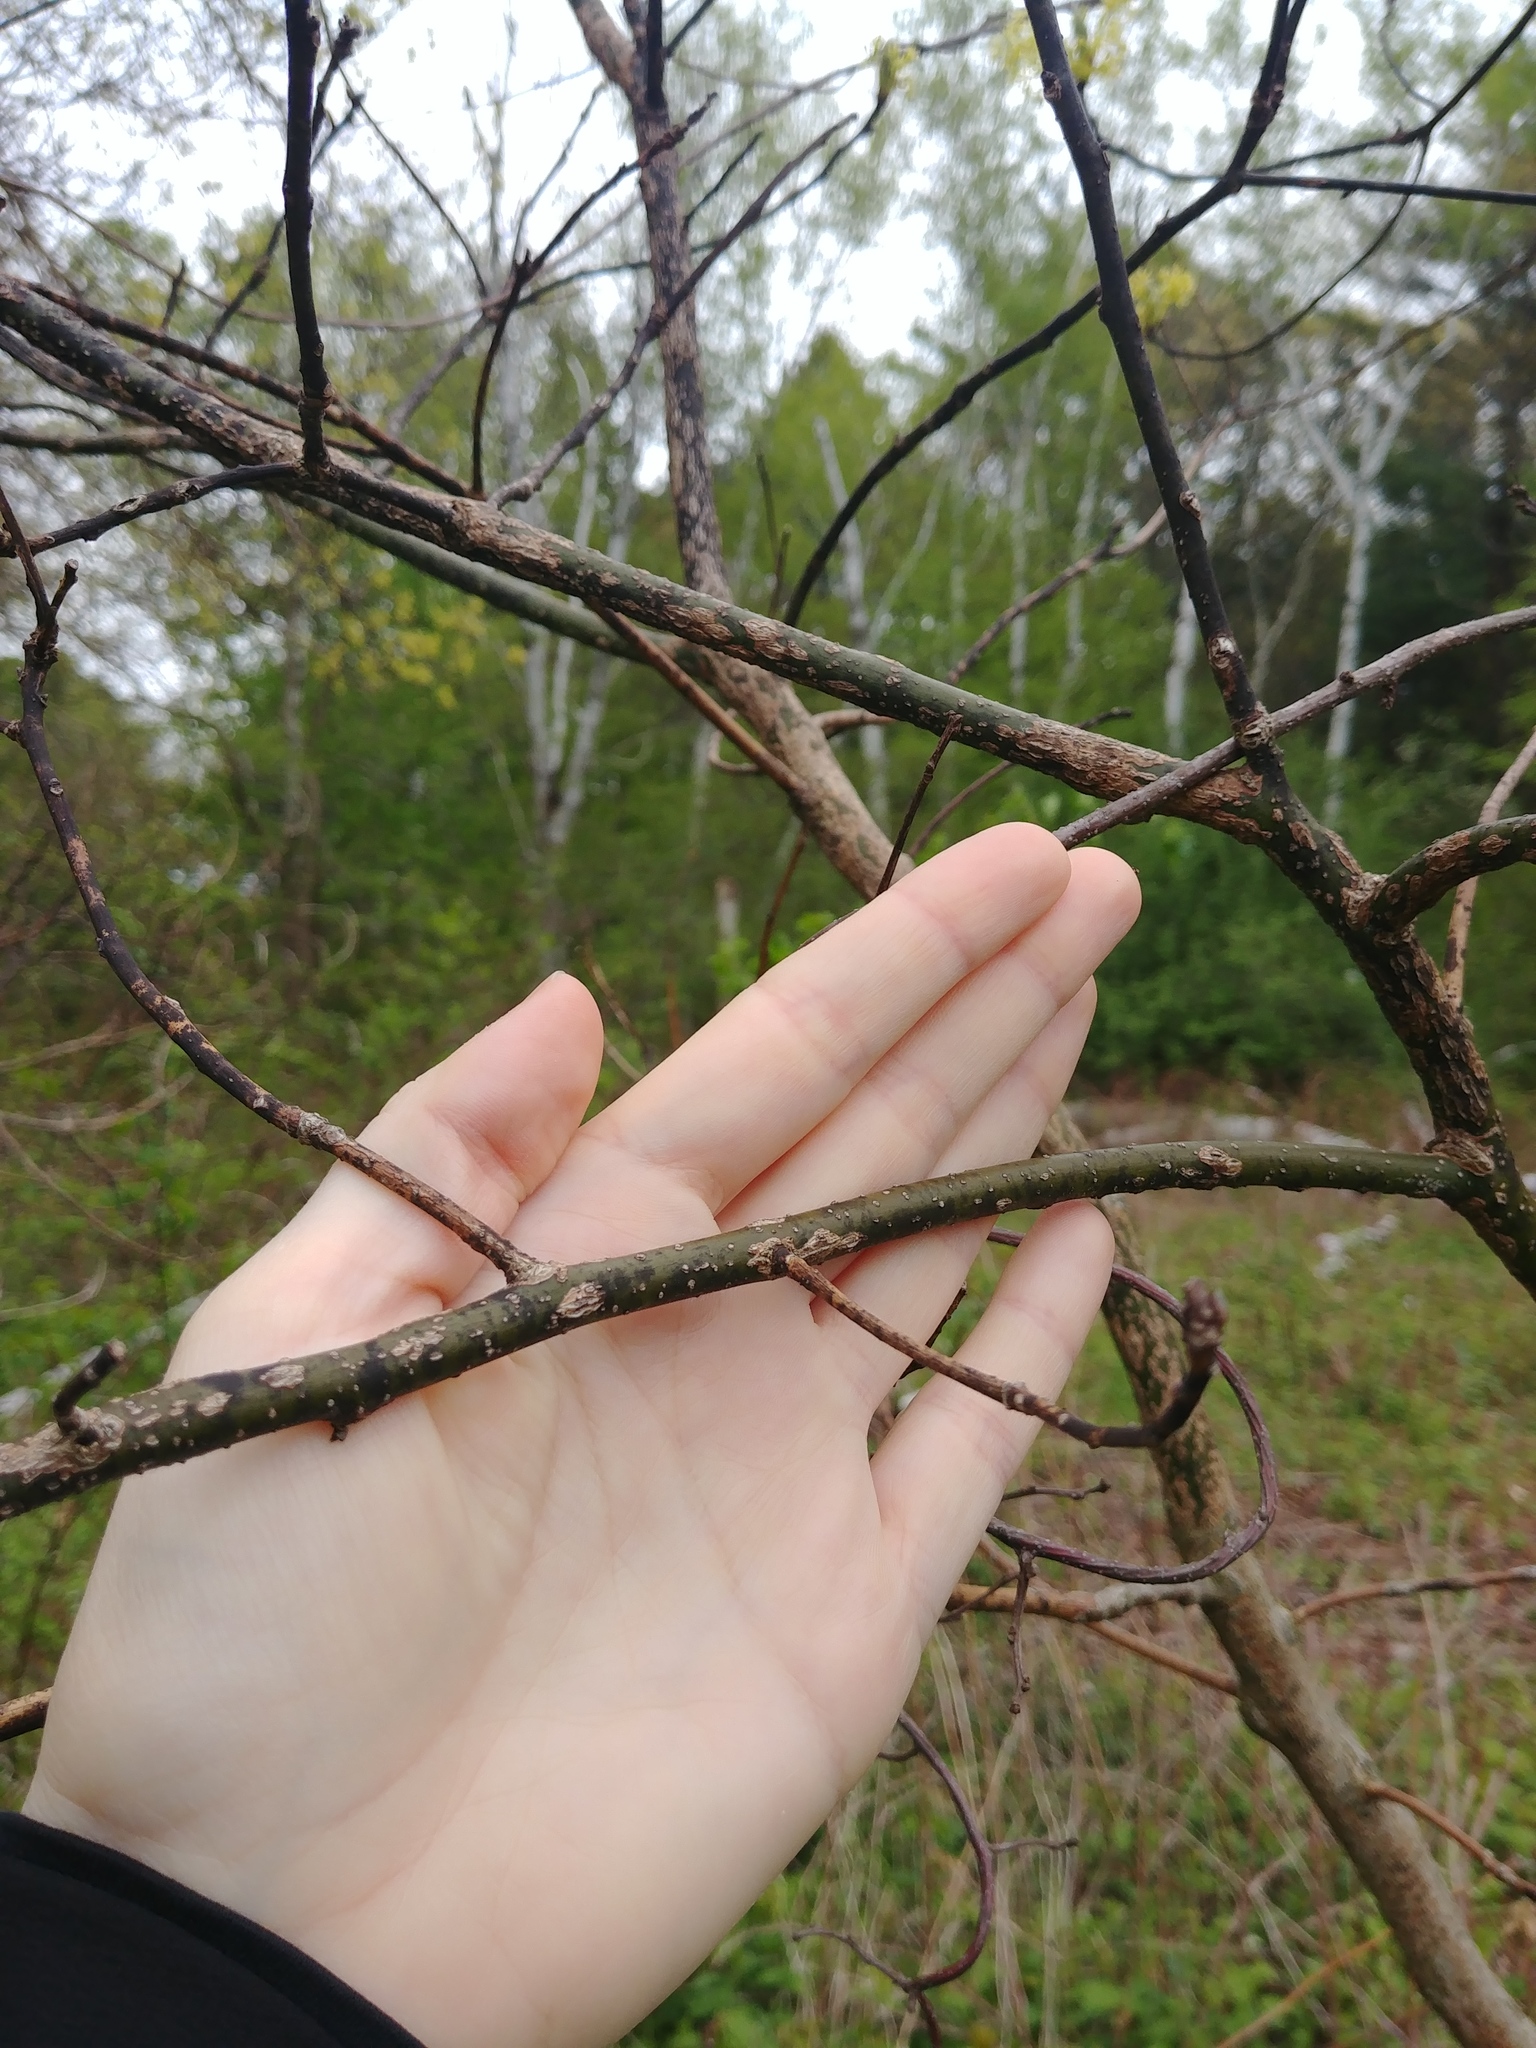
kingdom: Plantae
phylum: Tracheophyta
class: Magnoliopsida
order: Laurales
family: Lauraceae
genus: Sassafras
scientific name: Sassafras albidum
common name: Sassafras
